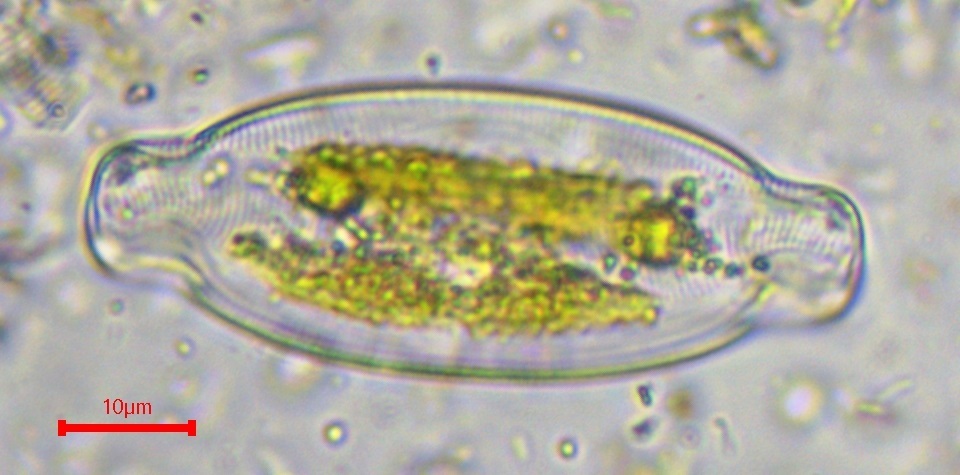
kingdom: Chromista
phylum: Ochrophyta
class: Bacillariophyceae
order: Naviculales
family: Naviculaceae
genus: Caloneis
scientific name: Caloneis amphisbaena
